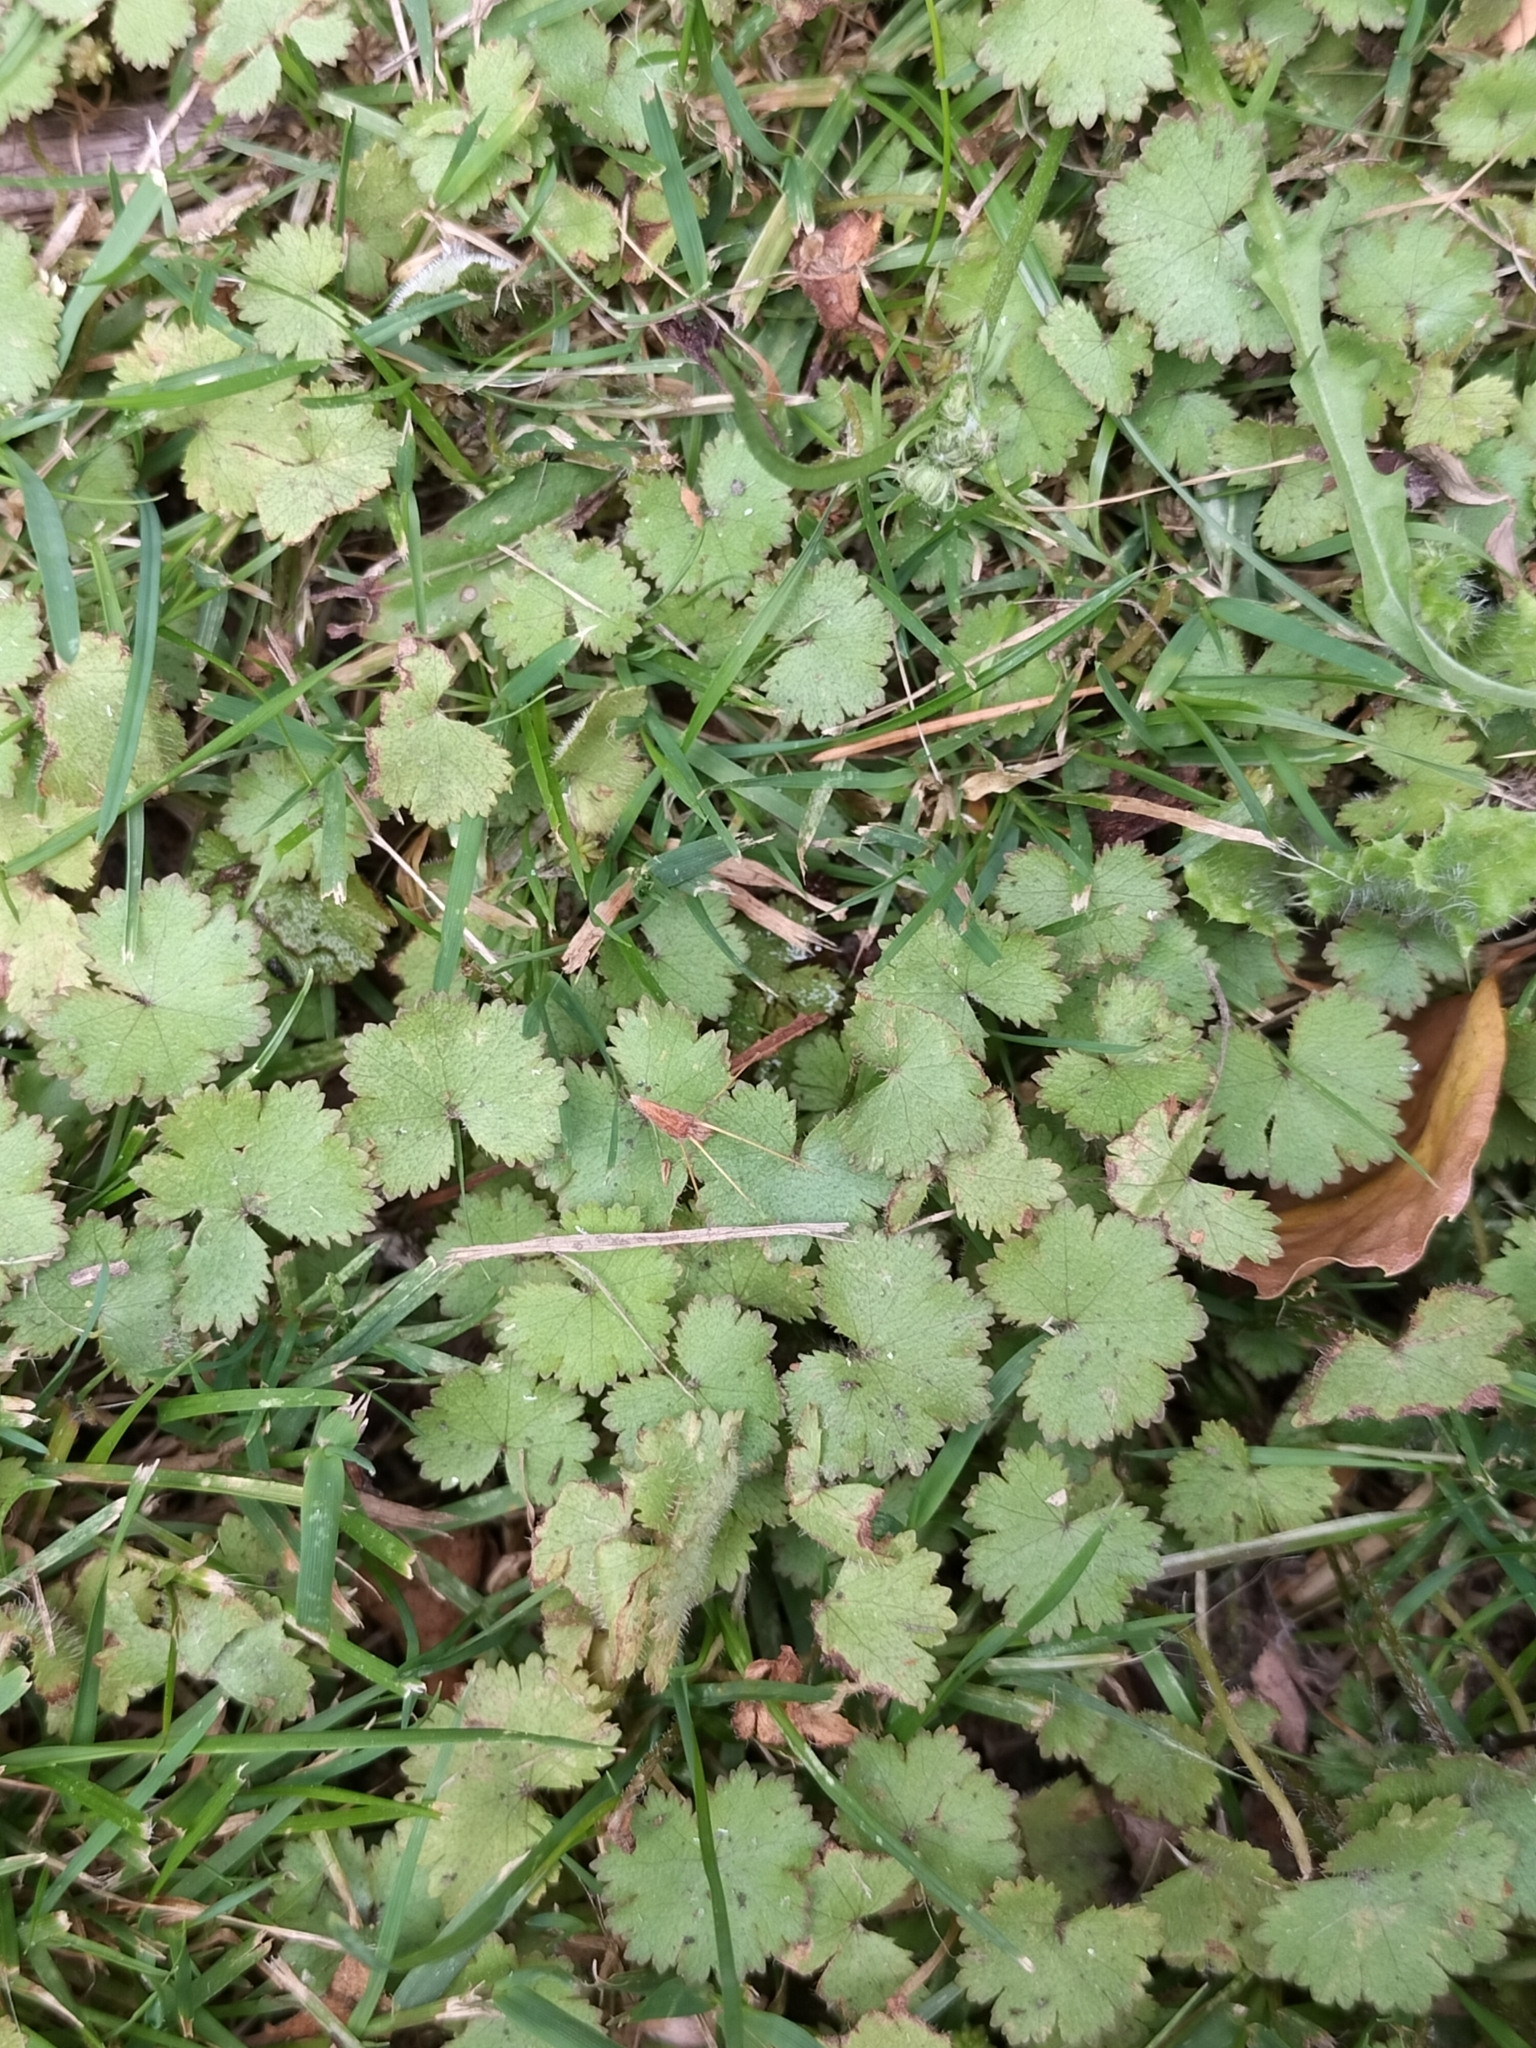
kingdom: Plantae
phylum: Tracheophyta
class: Magnoliopsida
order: Apiales
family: Araliaceae
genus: Hydrocotyle
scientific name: Hydrocotyle moschata
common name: Hairy pennywort
